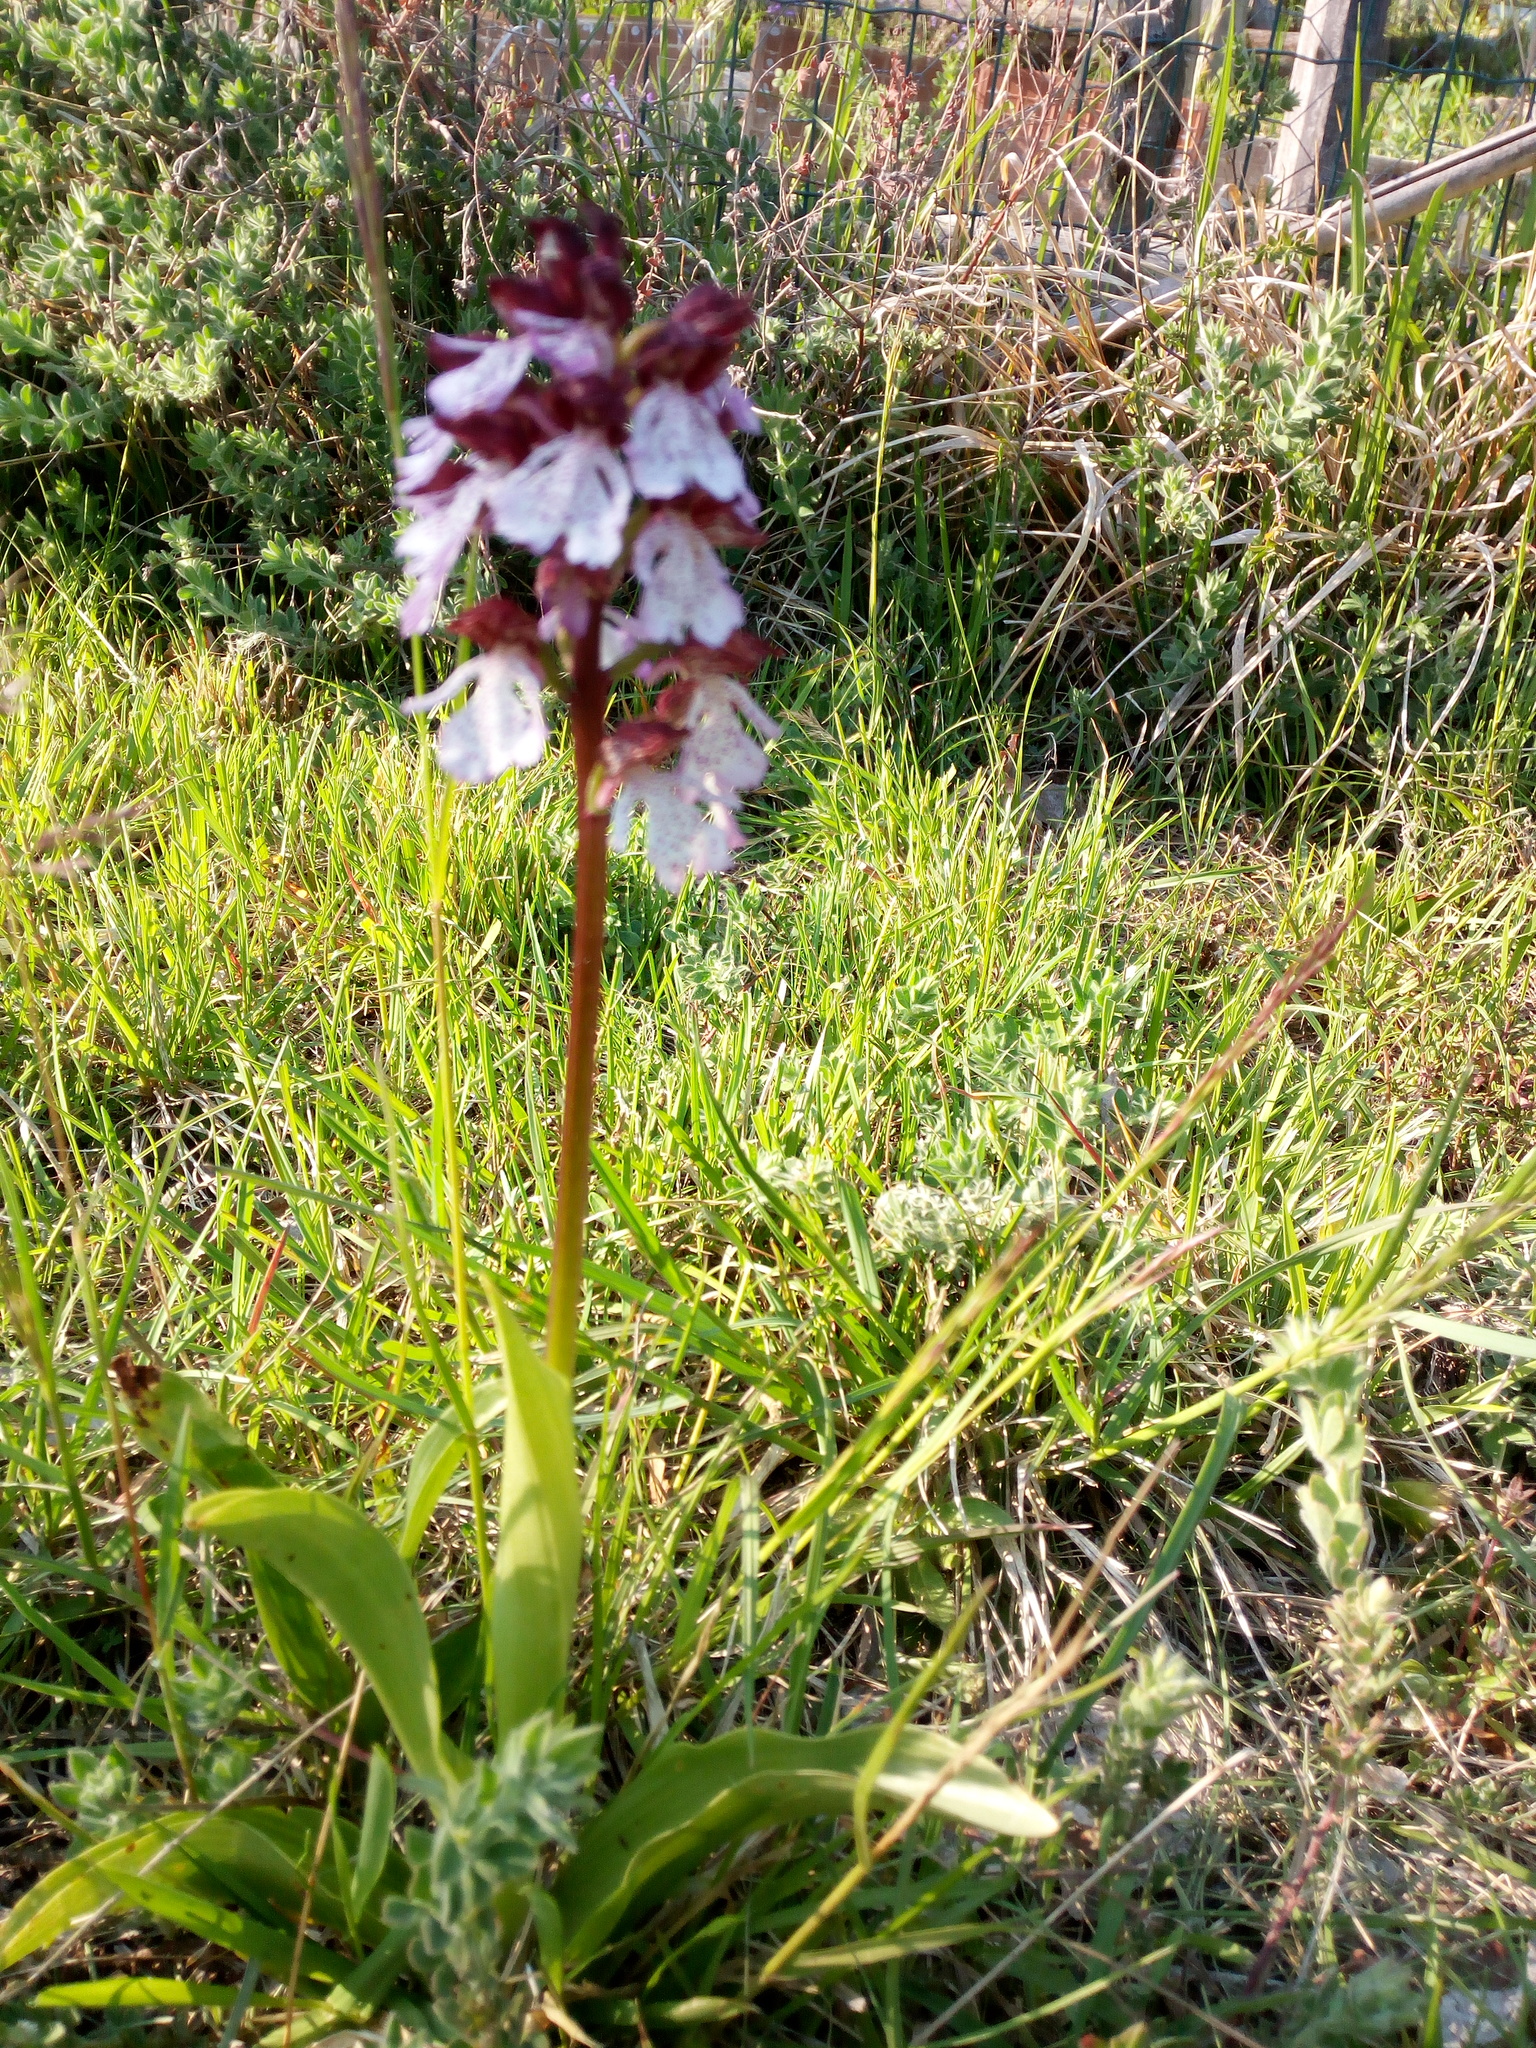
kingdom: Plantae
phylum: Tracheophyta
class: Liliopsida
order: Asparagales
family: Orchidaceae
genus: Orchis
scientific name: Orchis purpurea
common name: Lady orchid
